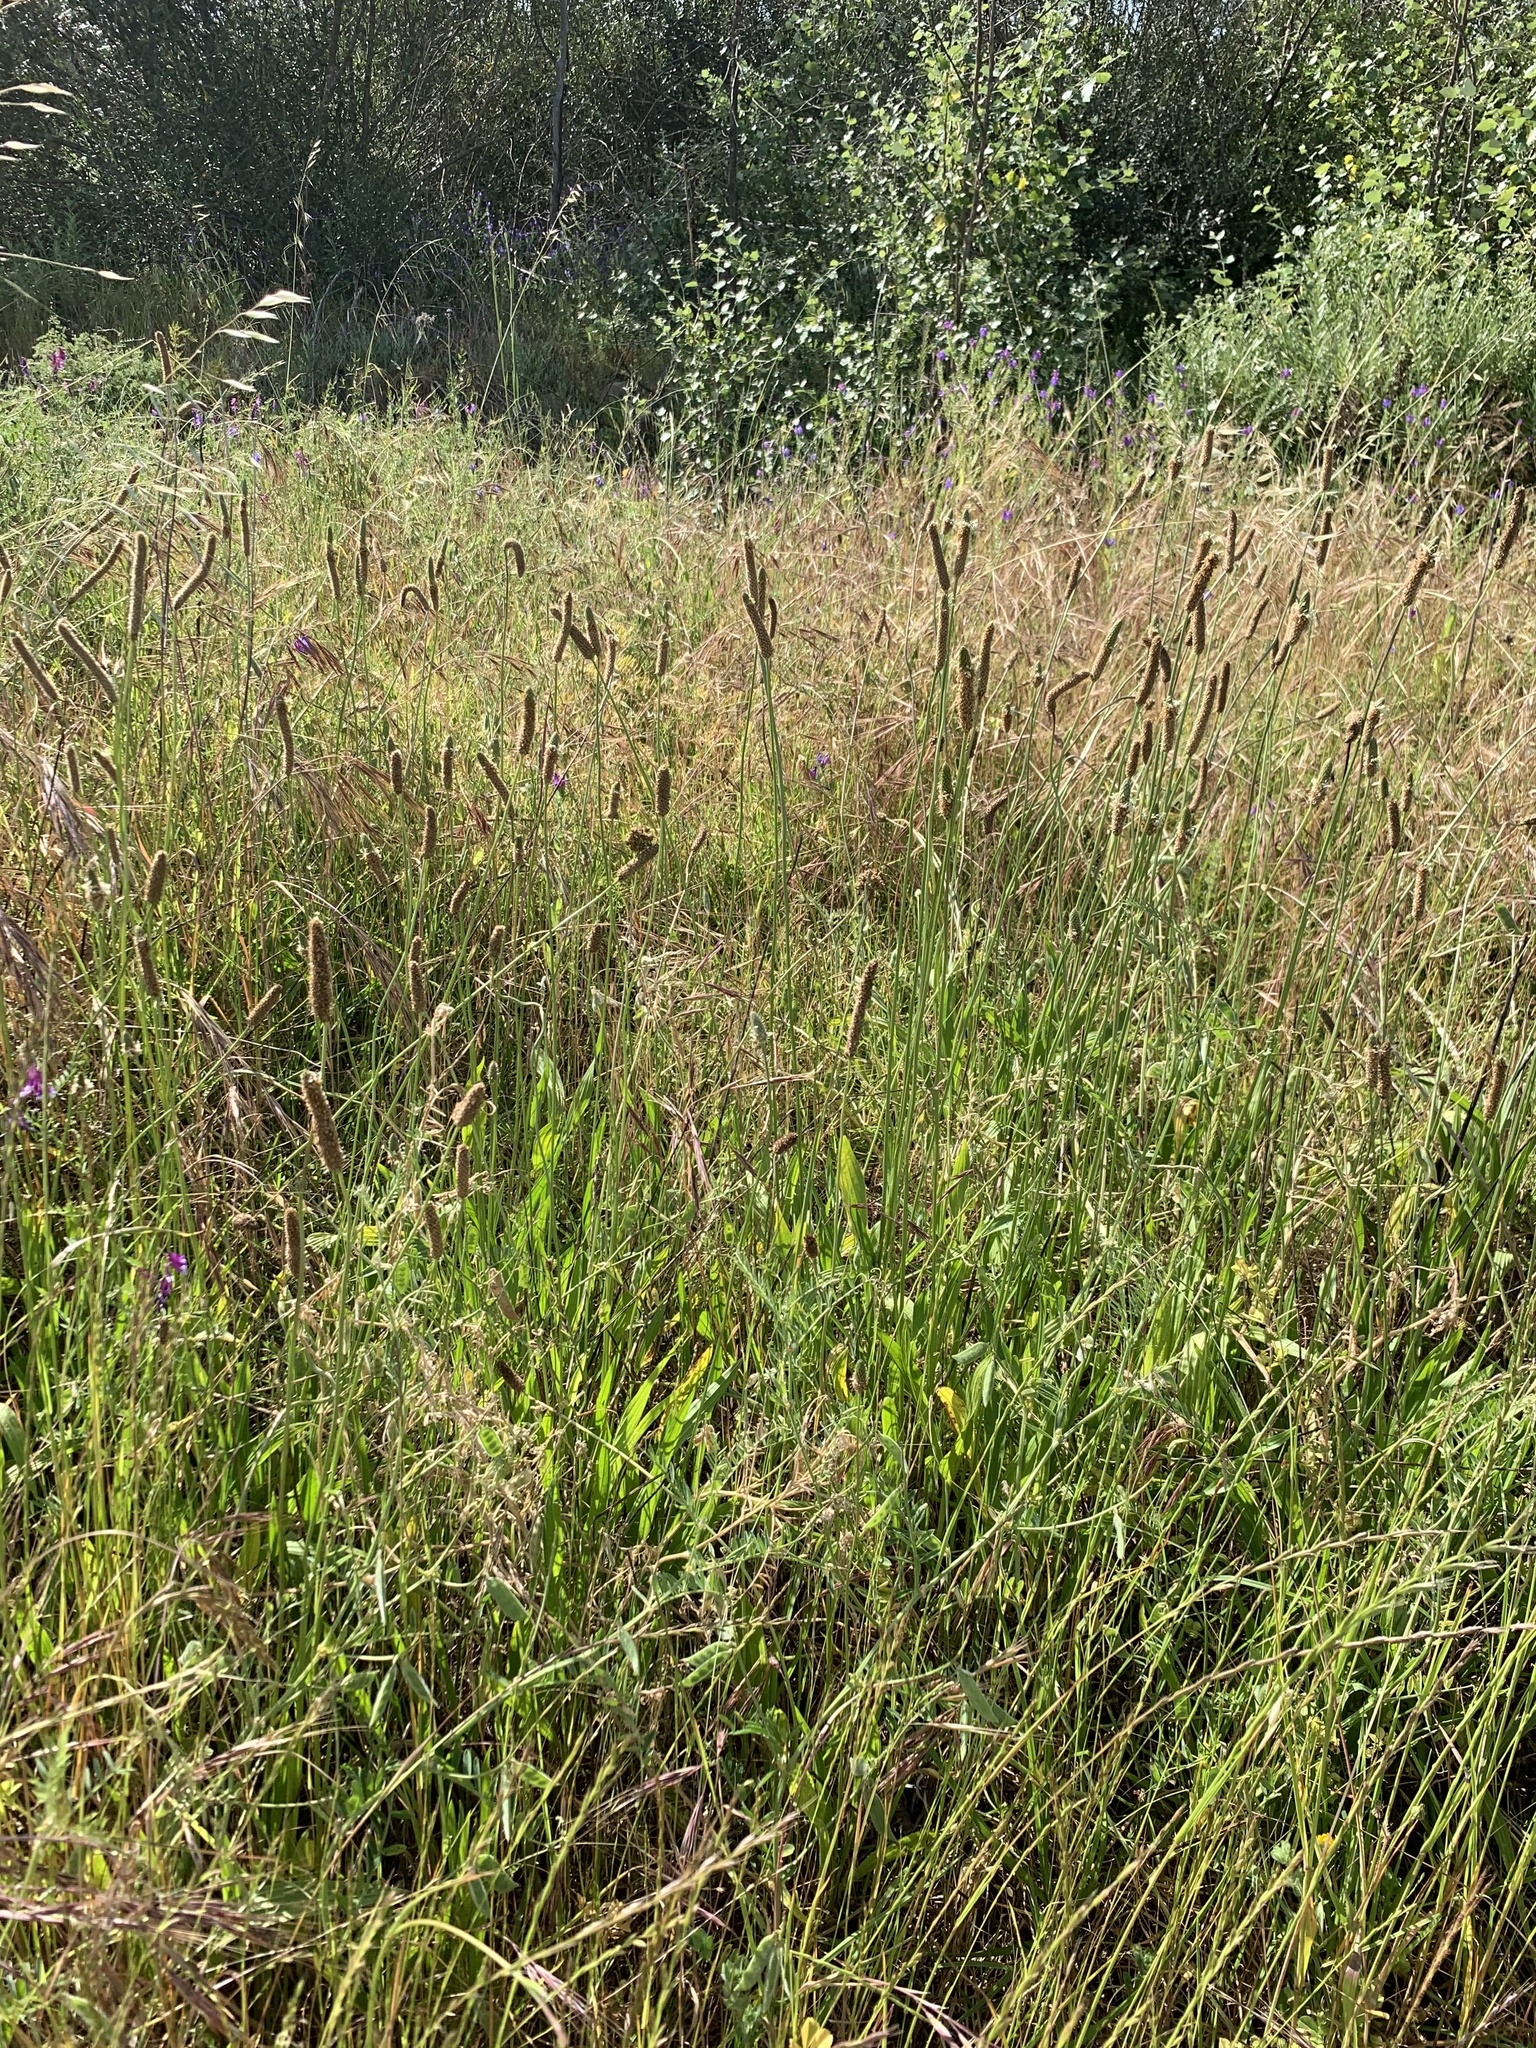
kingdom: Plantae
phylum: Tracheophyta
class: Magnoliopsida
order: Lamiales
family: Plantaginaceae
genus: Plantago
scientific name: Plantago lanceolata
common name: Ribwort plantain
